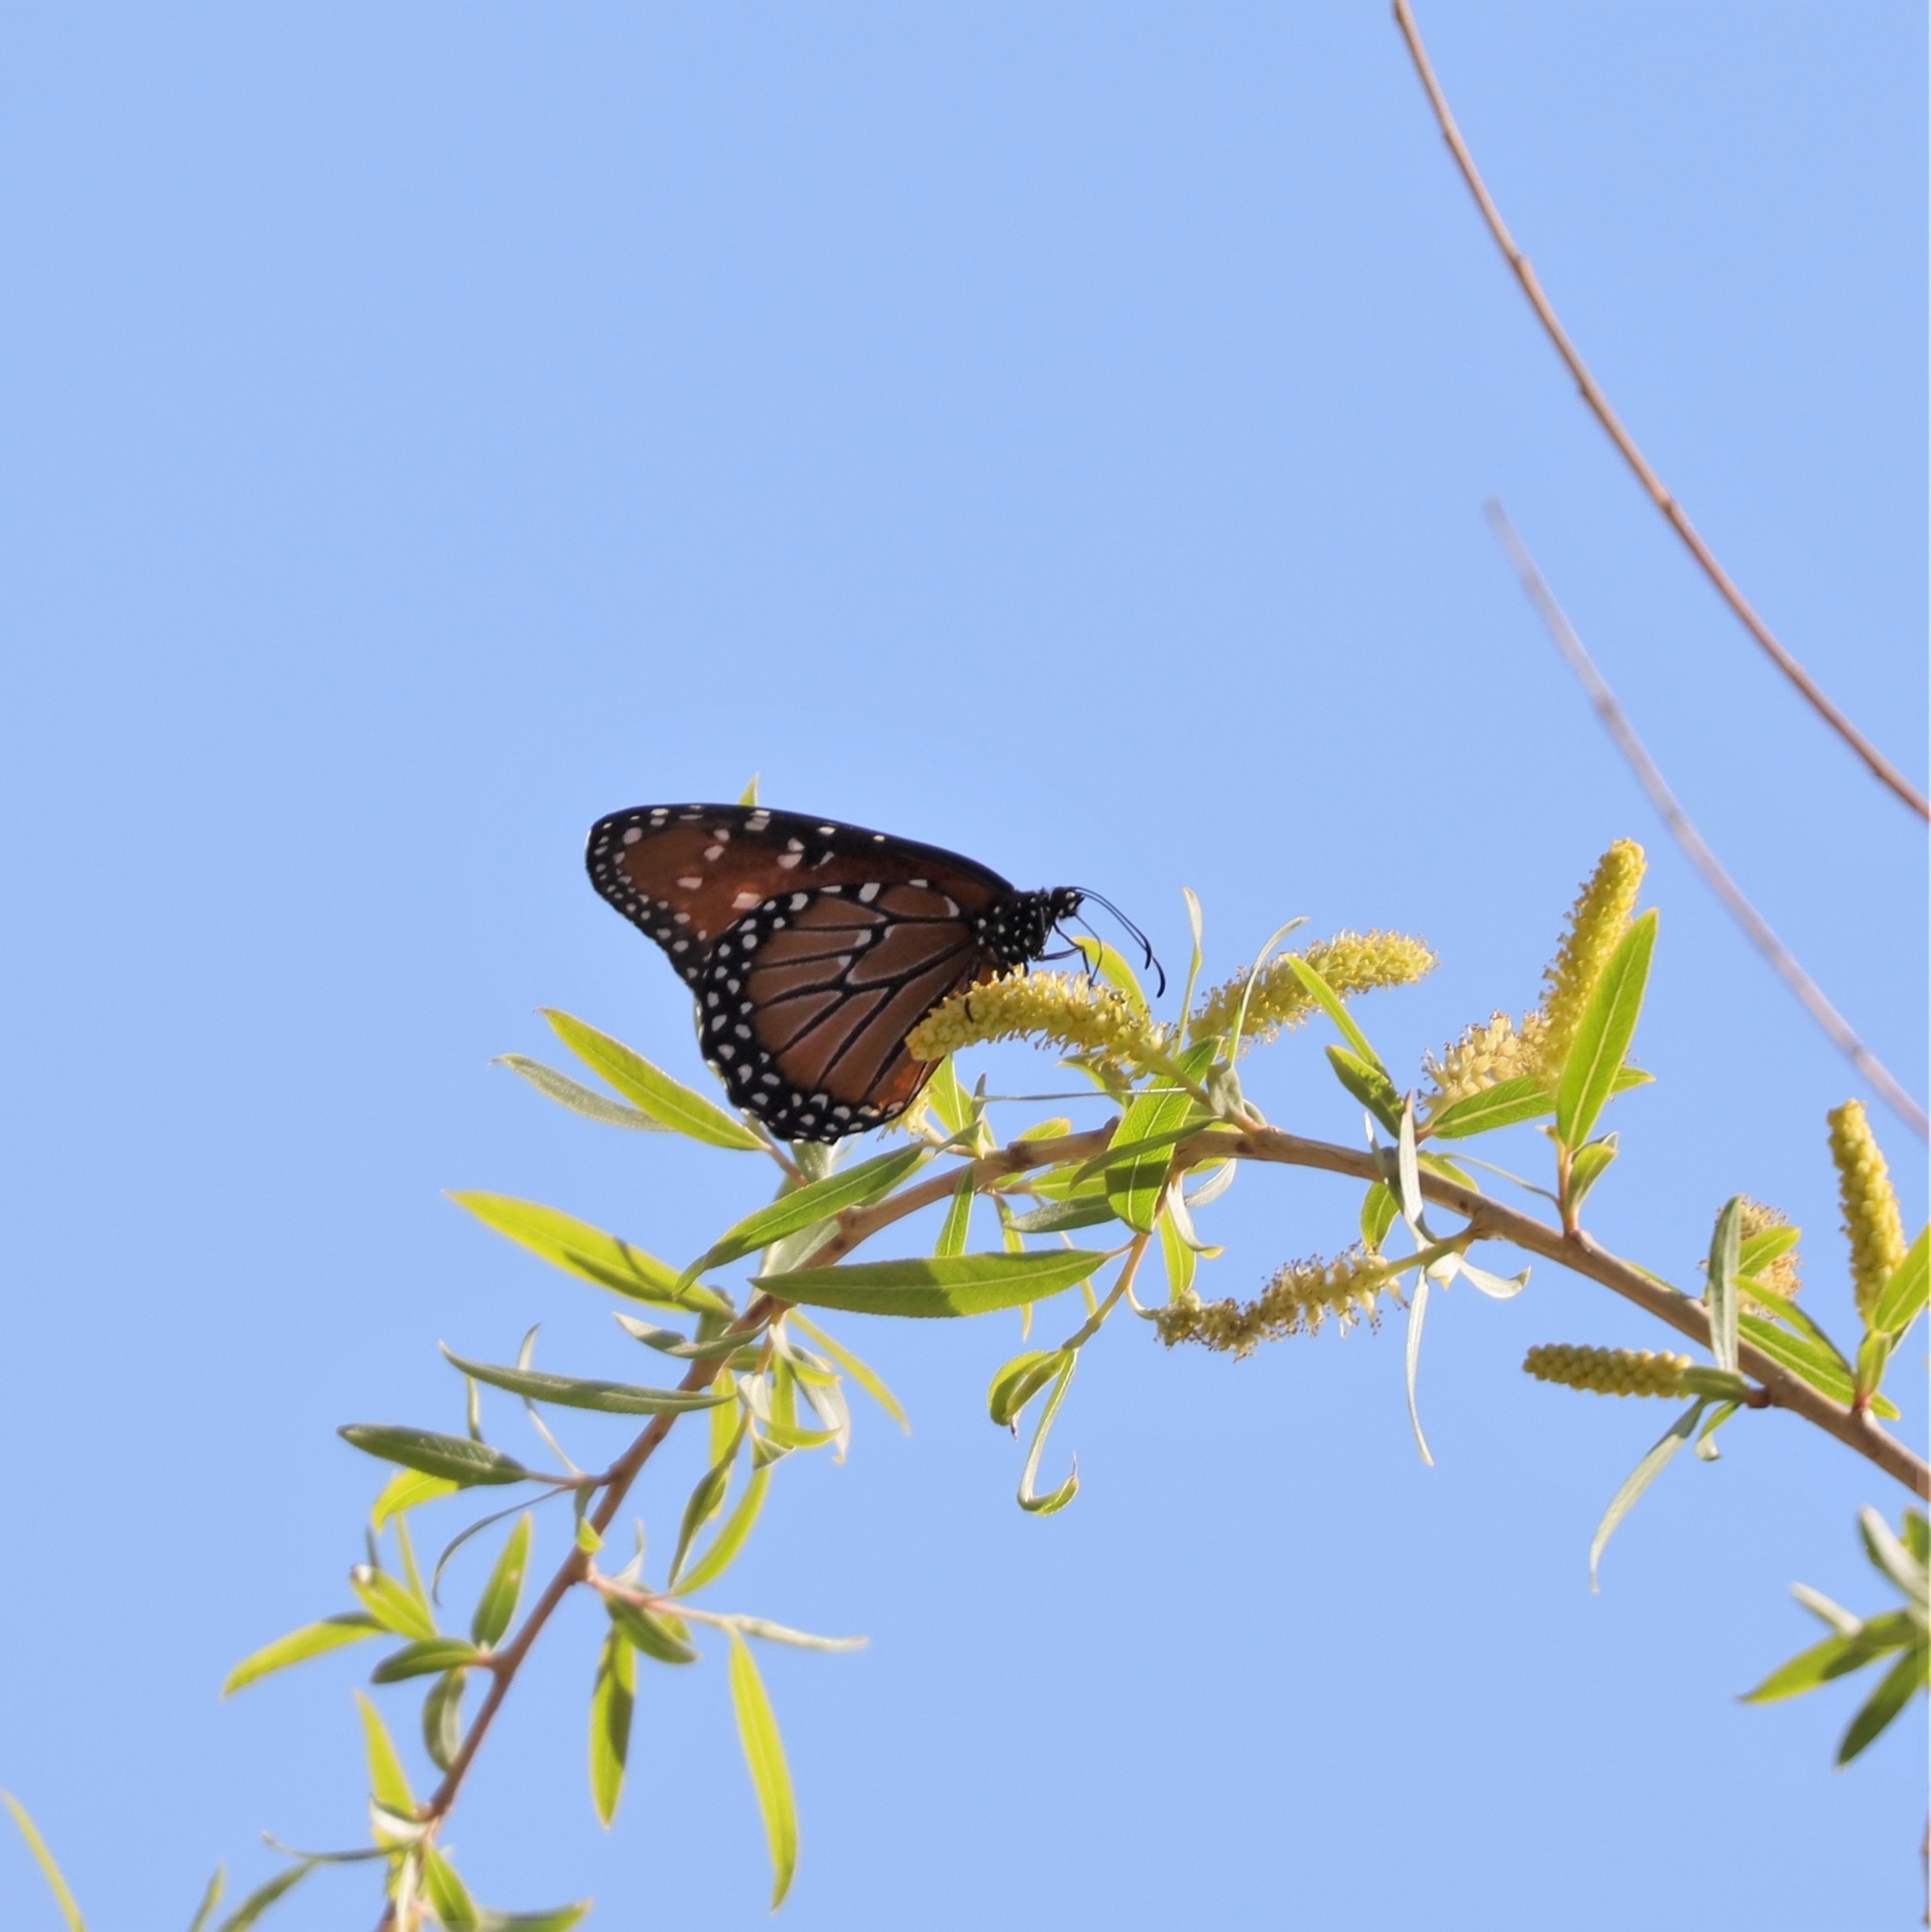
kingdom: Animalia
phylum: Arthropoda
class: Insecta
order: Lepidoptera
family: Nymphalidae
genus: Danaus
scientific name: Danaus gilippus
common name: Queen
